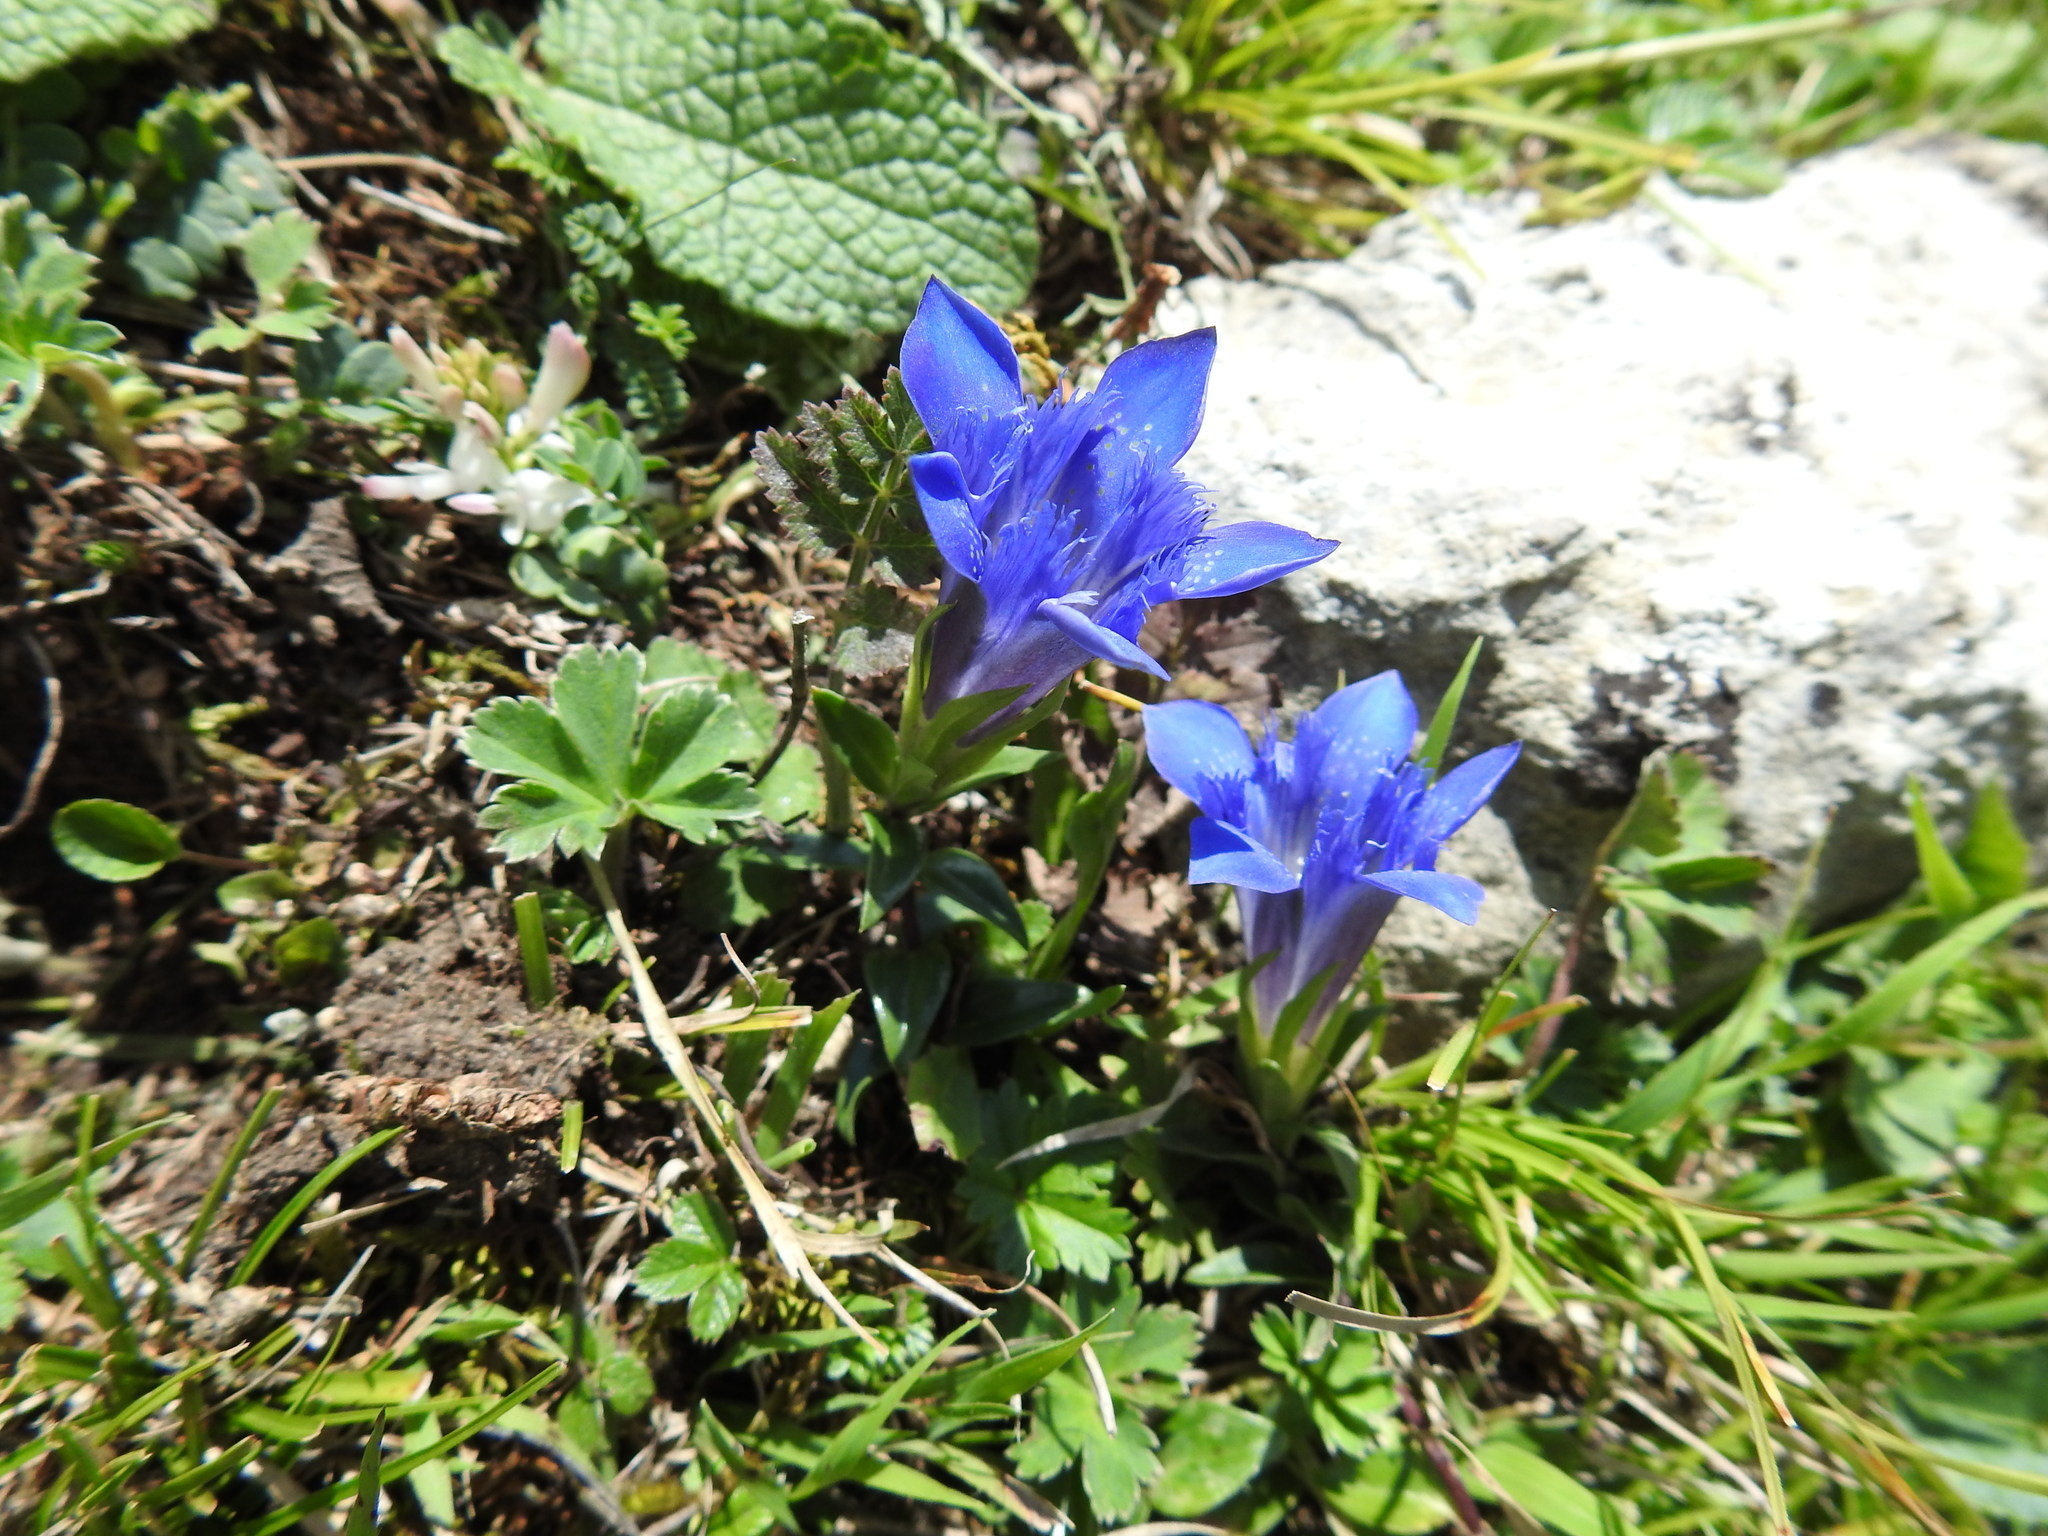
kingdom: Plantae
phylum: Tracheophyta
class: Magnoliopsida
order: Gentianales
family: Gentianaceae
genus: Gentiana
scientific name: Gentiana septemfida
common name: Crested gentian
